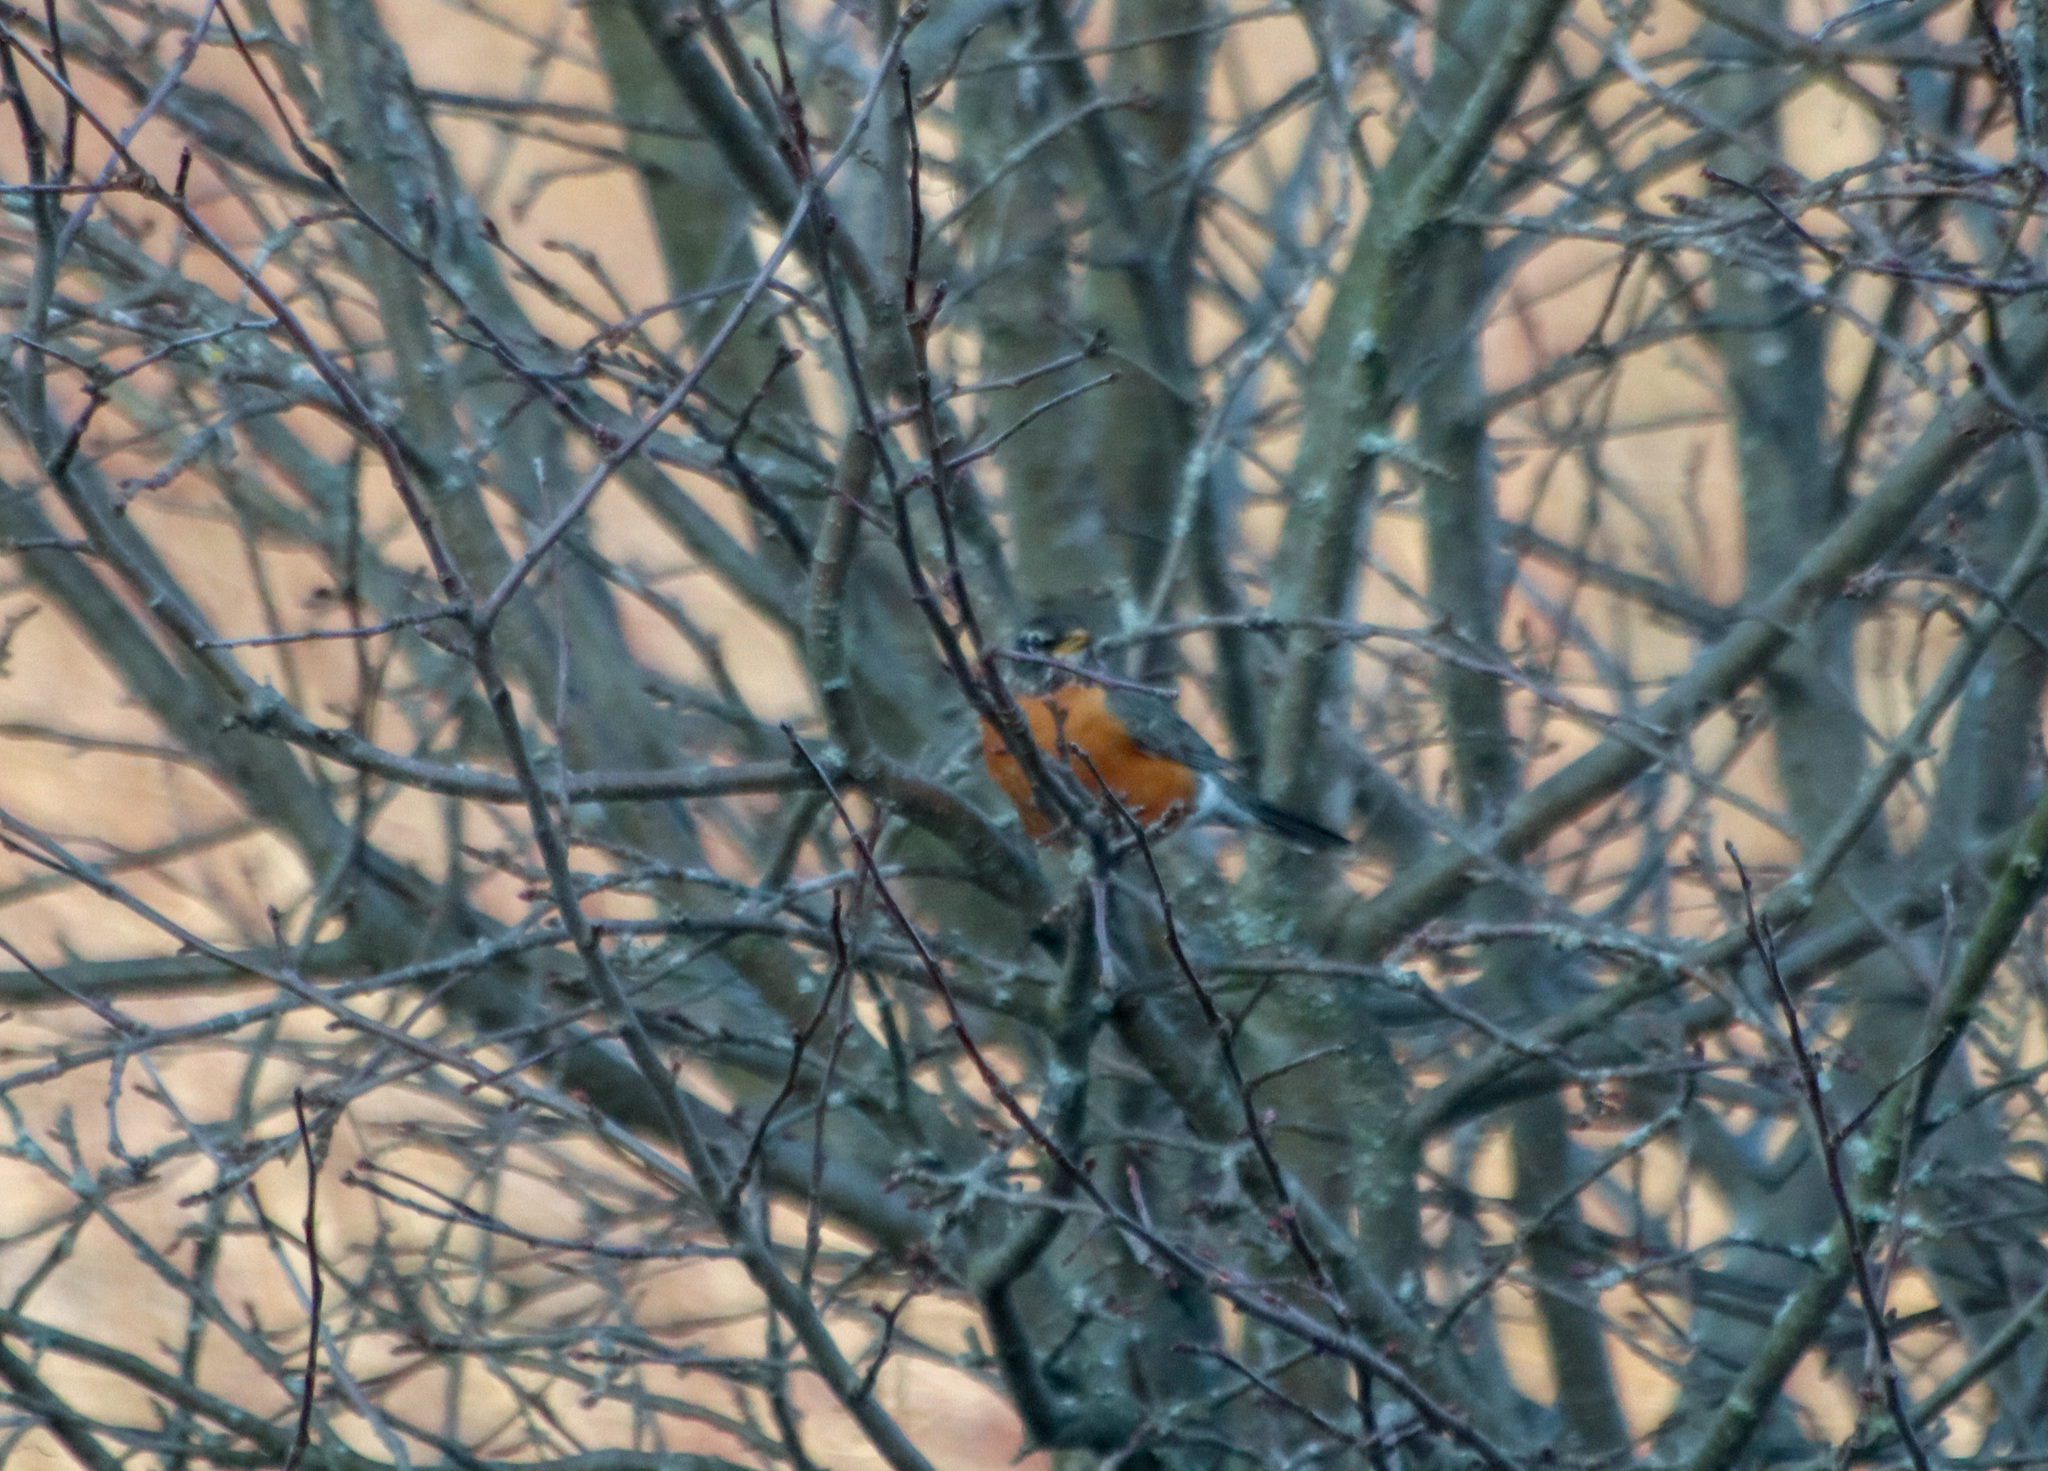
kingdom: Animalia
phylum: Chordata
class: Aves
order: Passeriformes
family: Turdidae
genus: Turdus
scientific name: Turdus migratorius
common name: American robin
